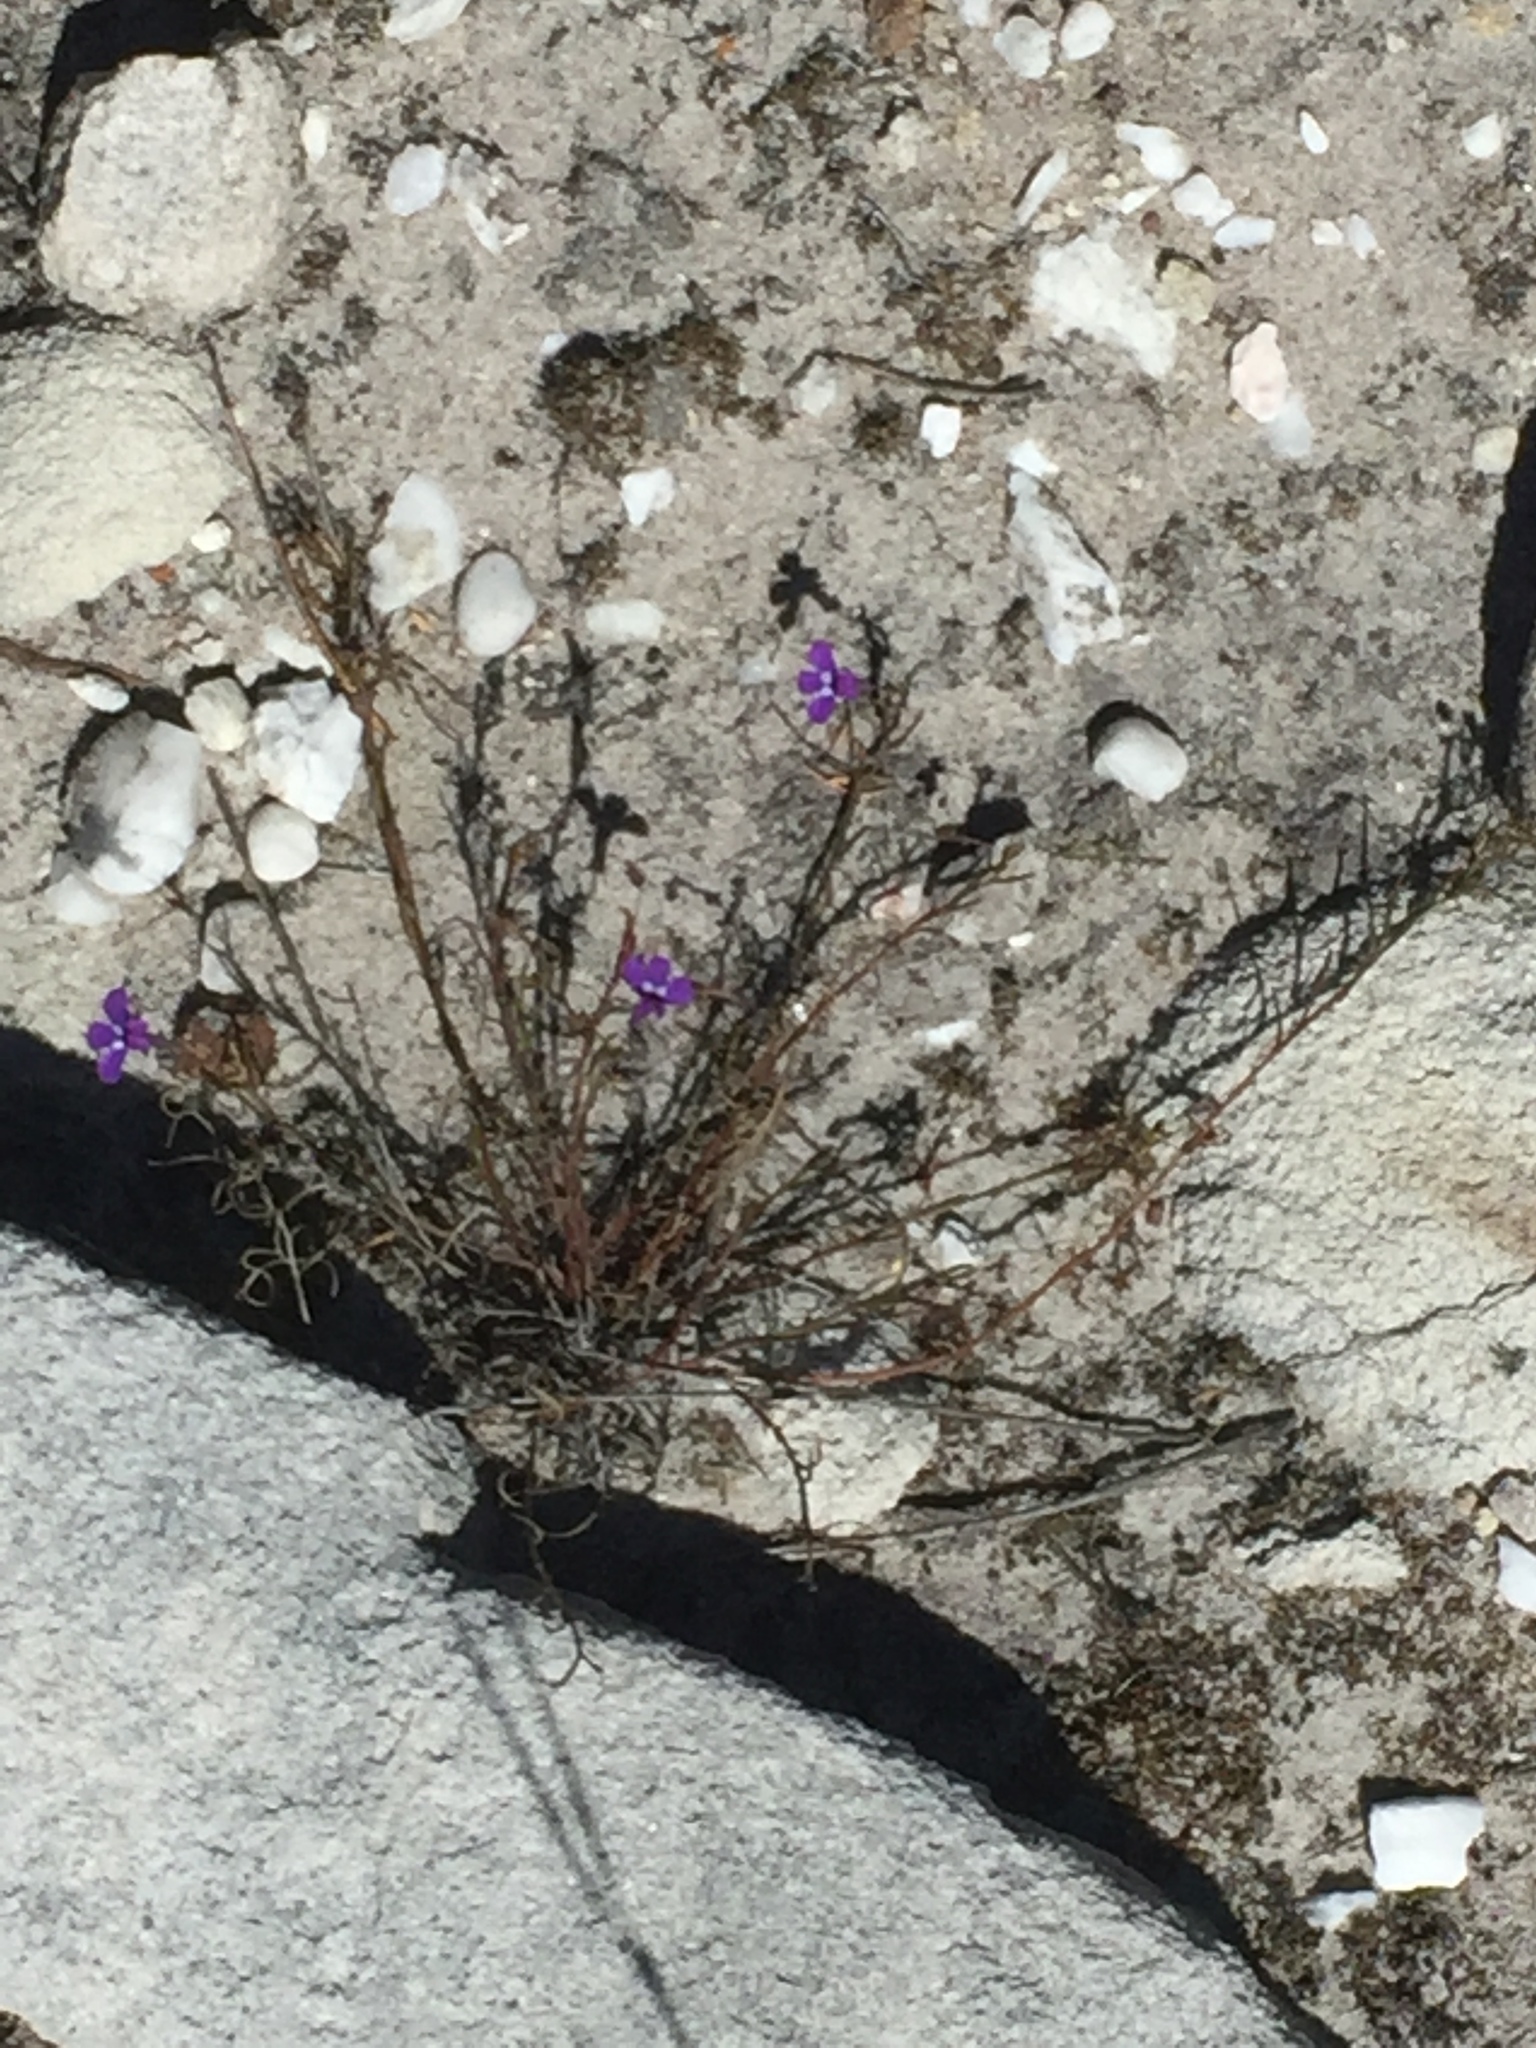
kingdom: Plantae
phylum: Tracheophyta
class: Magnoliopsida
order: Asterales
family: Campanulaceae
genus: Lobelia
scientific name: Lobelia setacea
